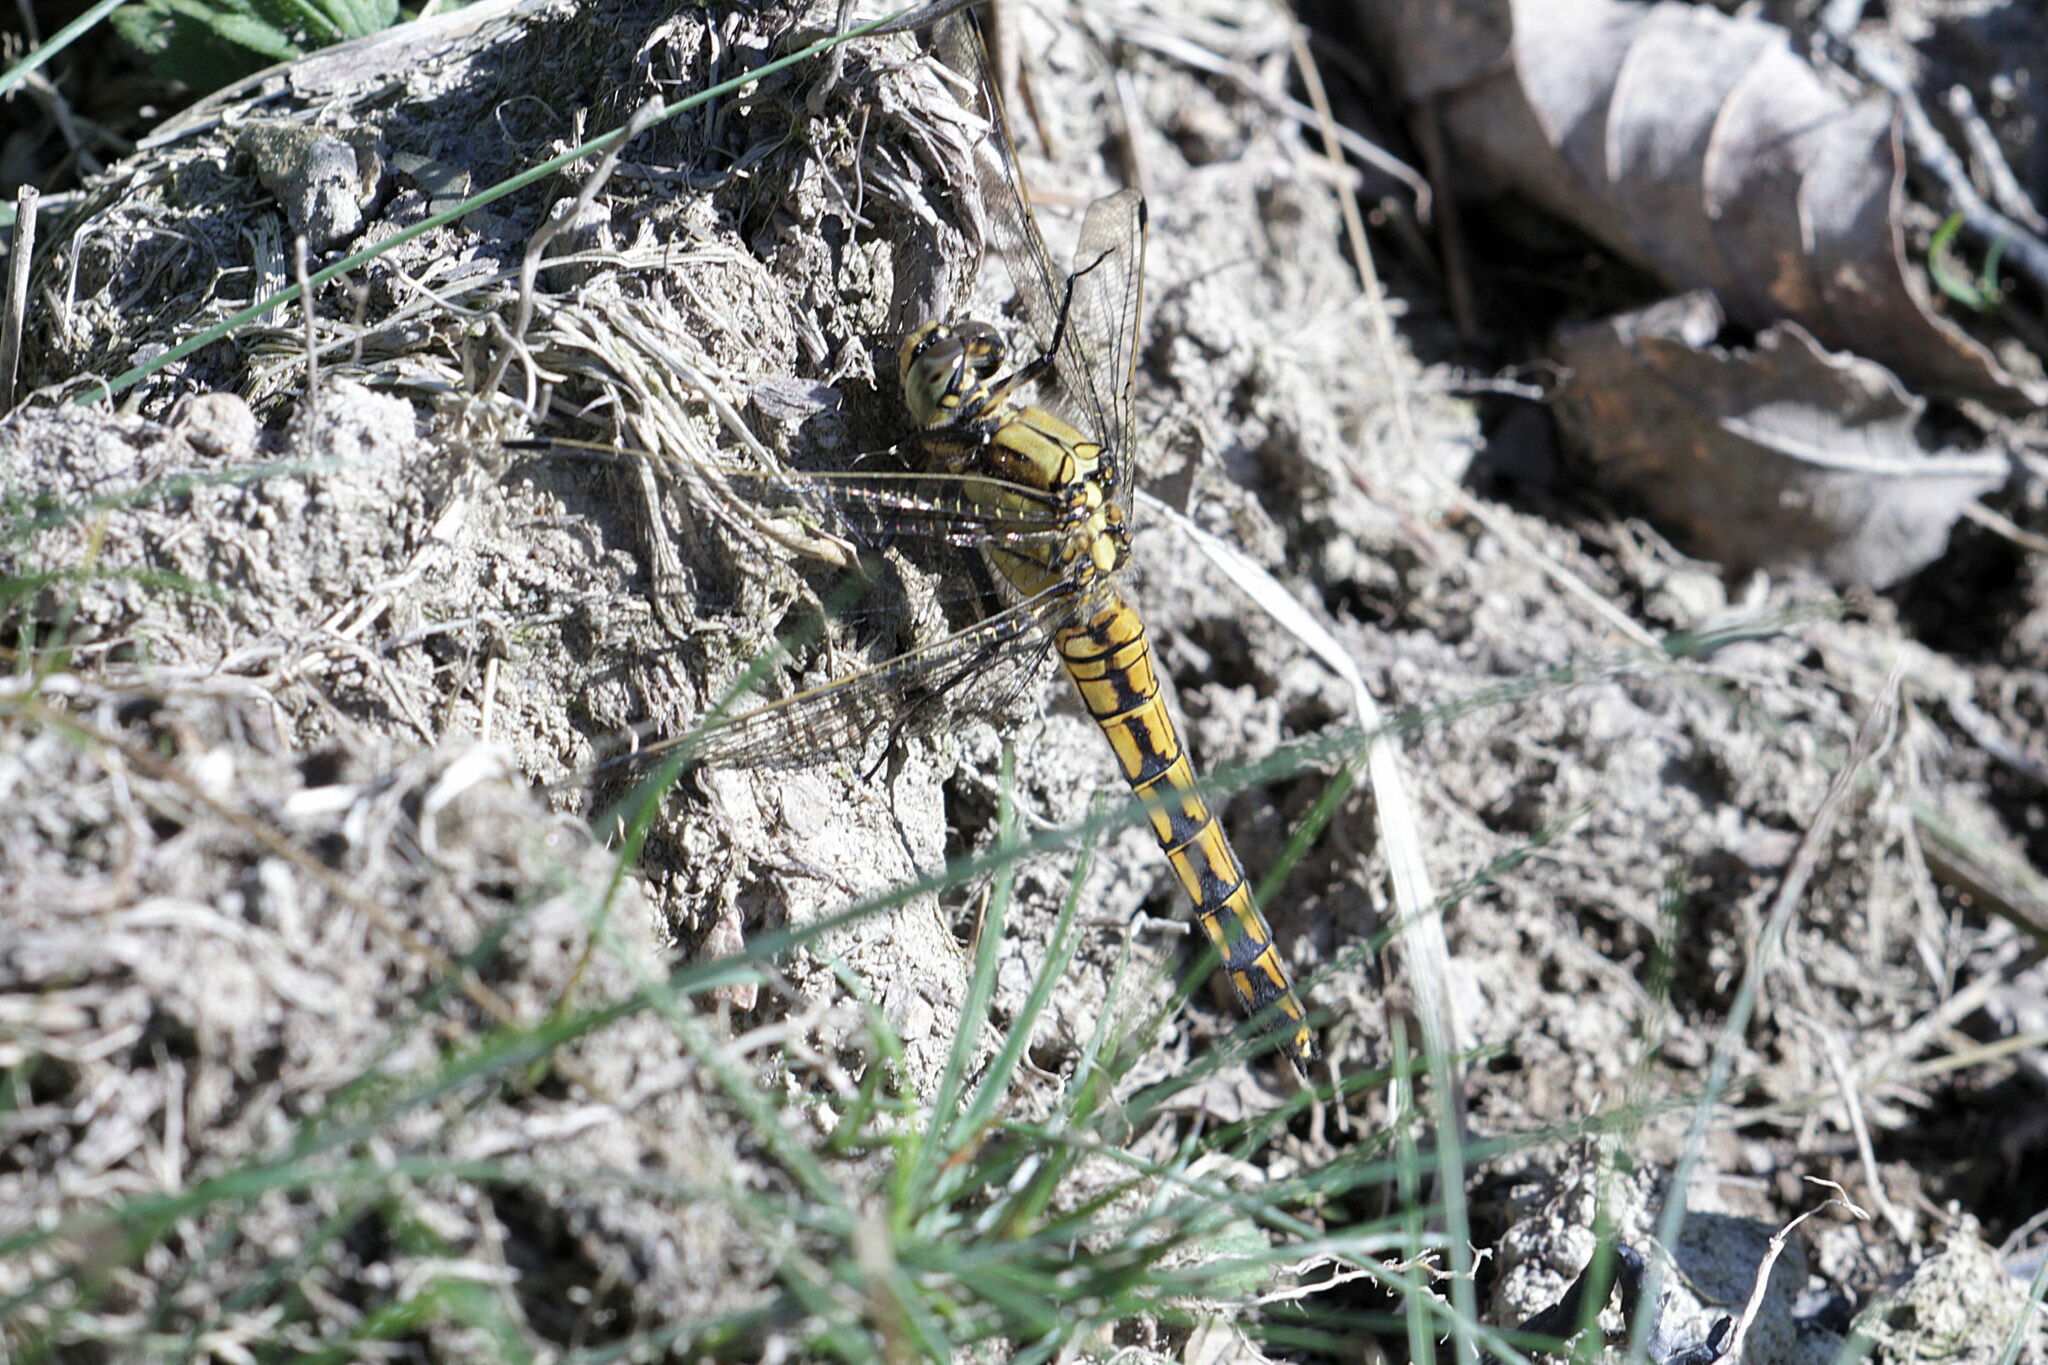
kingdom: Animalia
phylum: Arthropoda
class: Insecta
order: Odonata
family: Libellulidae
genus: Orthetrum
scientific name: Orthetrum cancellatum
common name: Black-tailed skimmer
